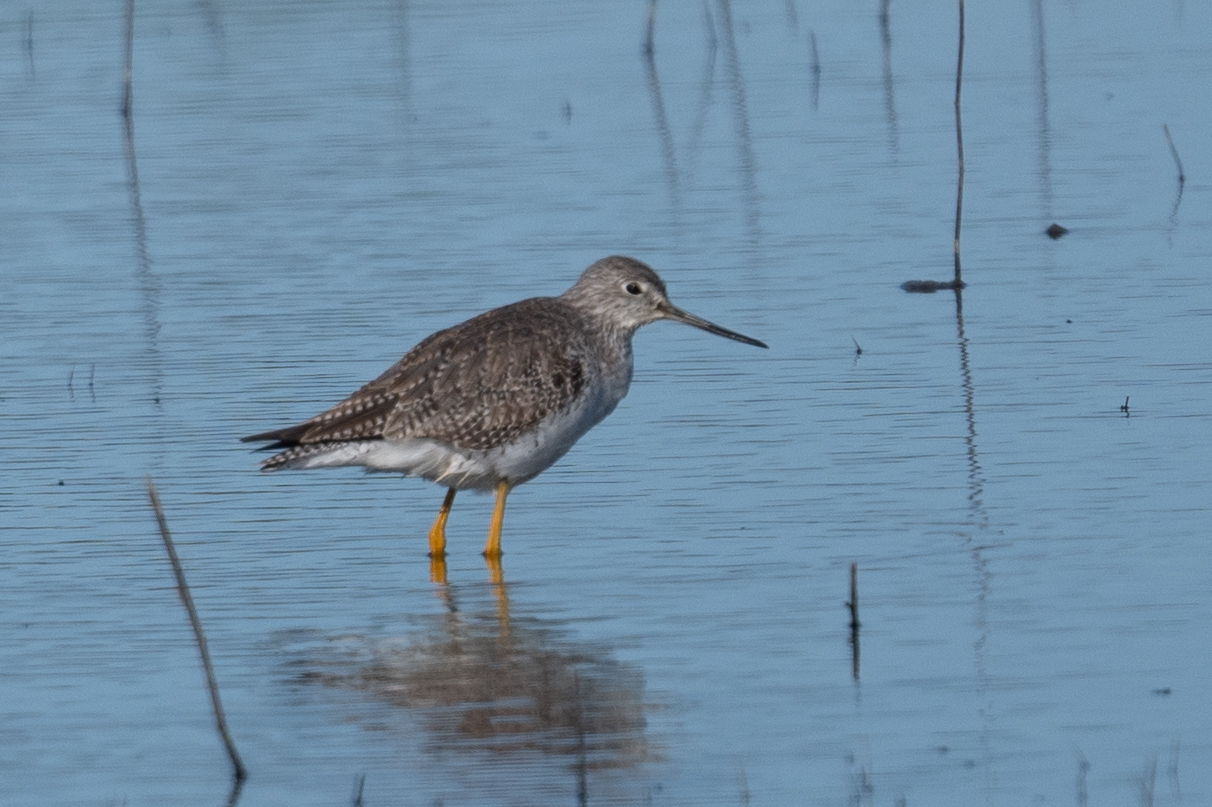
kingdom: Animalia
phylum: Chordata
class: Aves
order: Charadriiformes
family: Scolopacidae
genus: Tringa
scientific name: Tringa melanoleuca
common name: Greater yellowlegs
